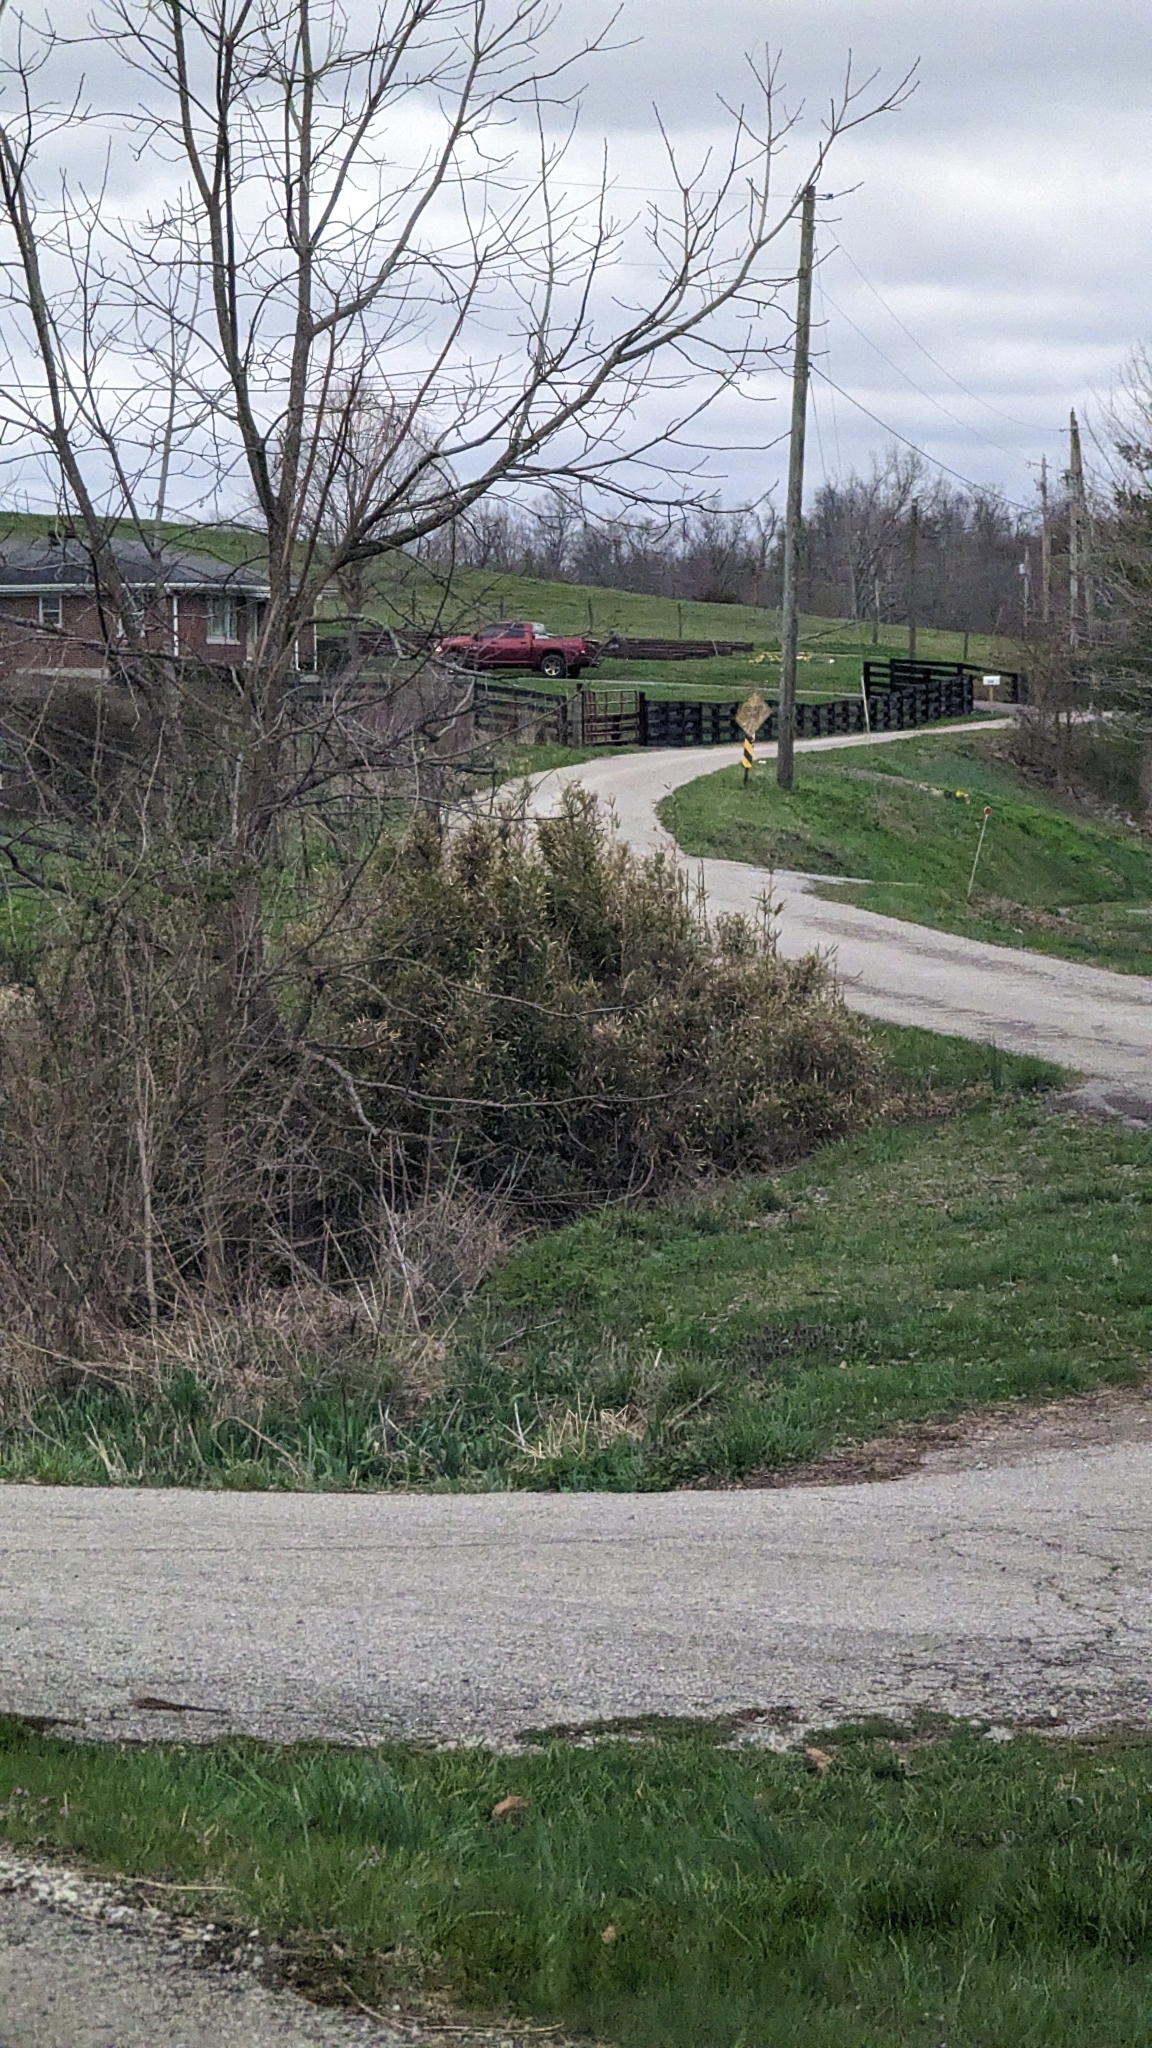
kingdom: Plantae
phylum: Tracheophyta
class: Liliopsida
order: Poales
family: Poaceae
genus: Arundinaria
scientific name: Arundinaria gigantea
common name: Giant cane
